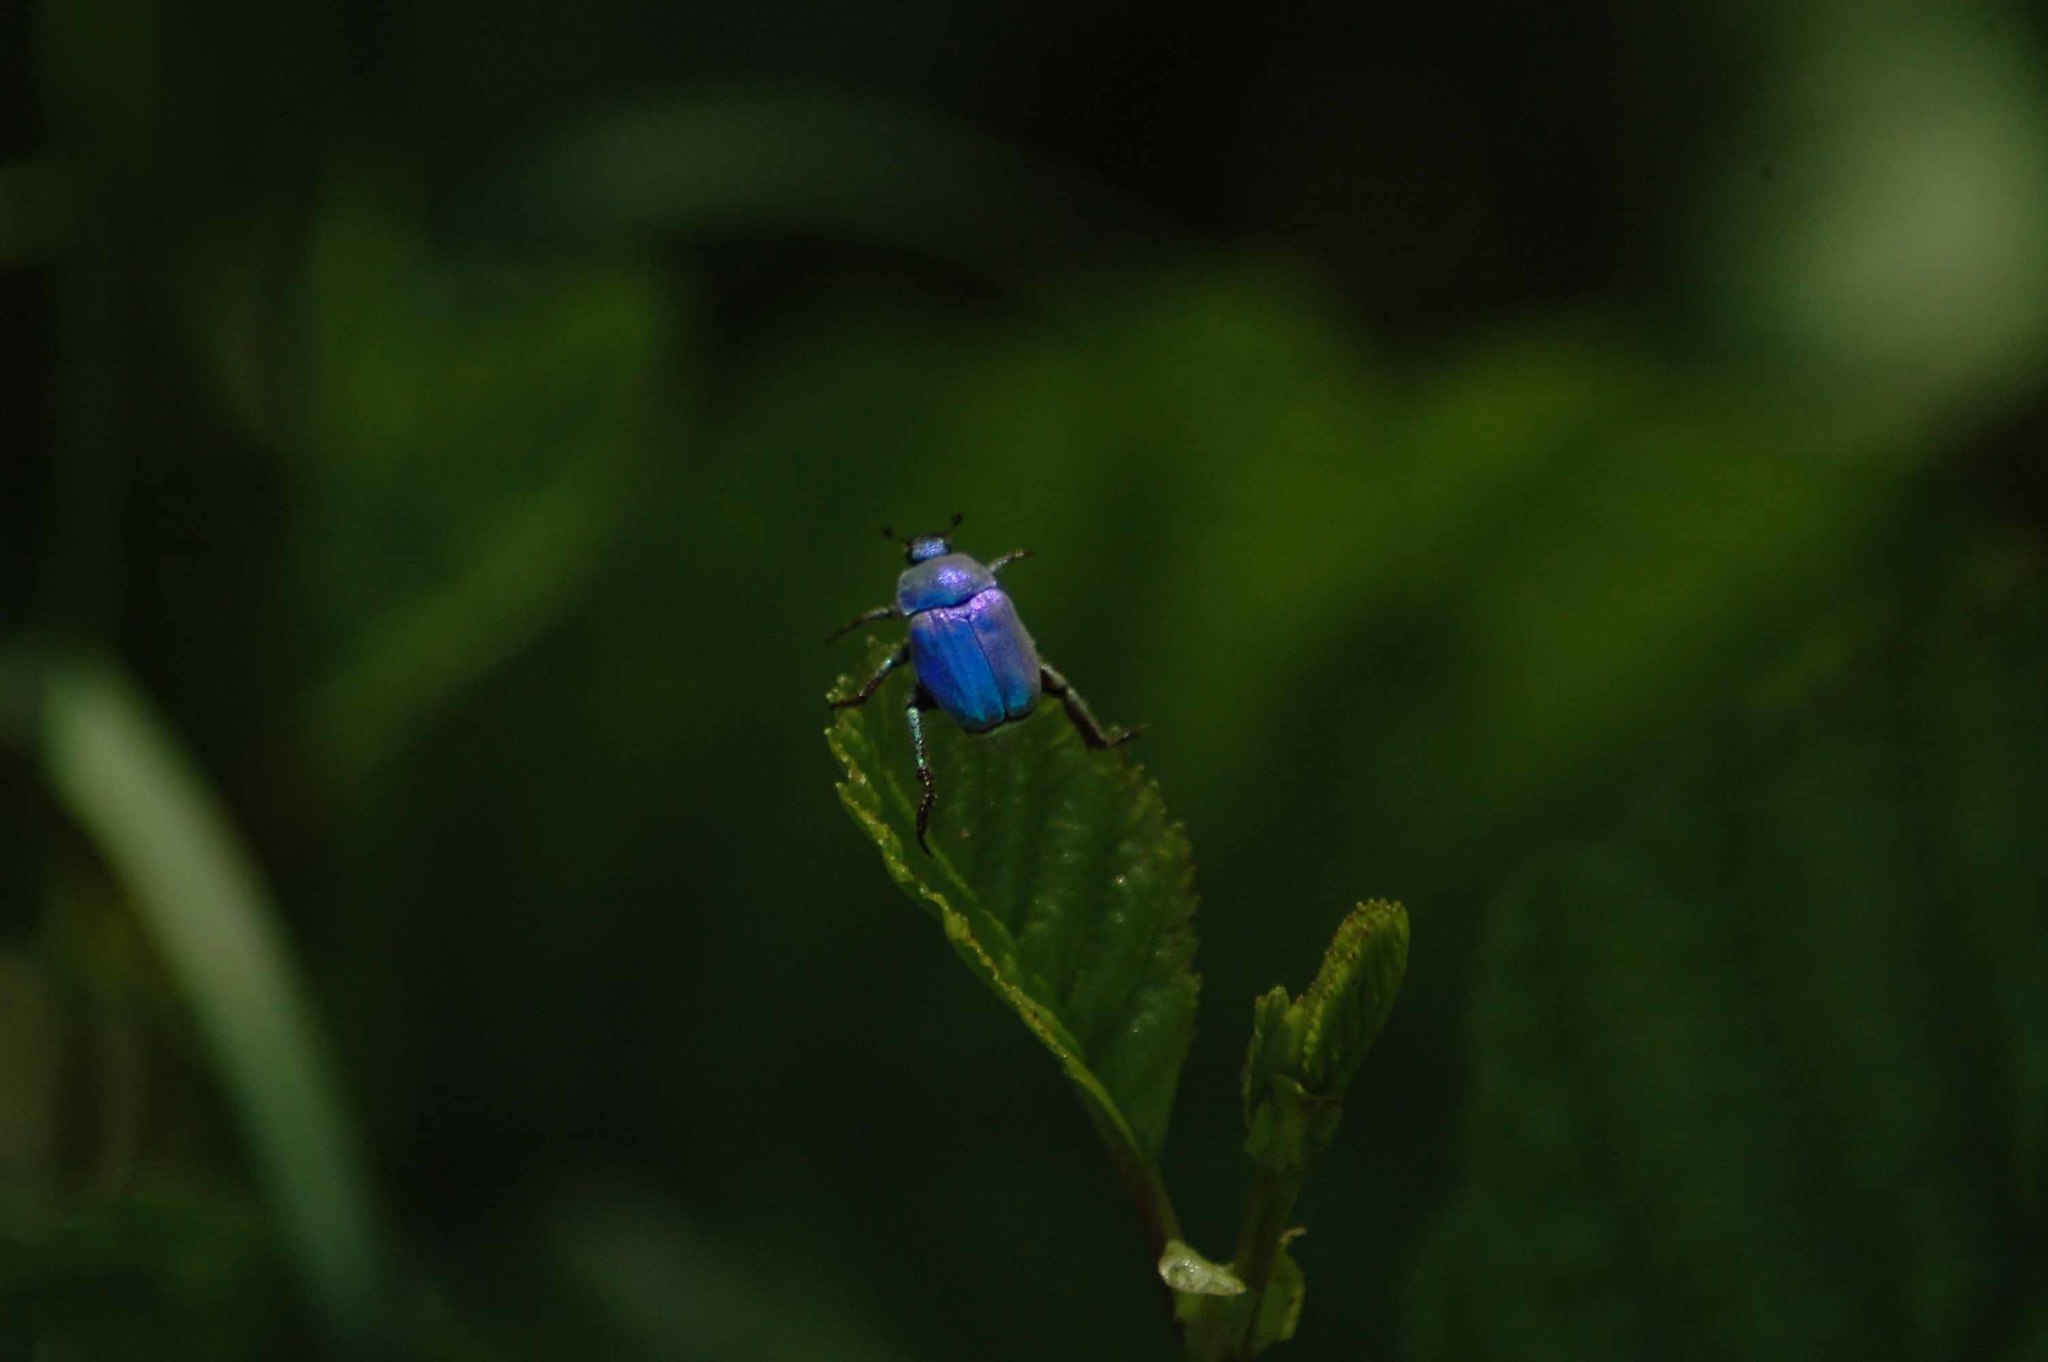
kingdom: Animalia
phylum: Arthropoda
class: Insecta
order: Coleoptera
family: Scarabaeidae
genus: Hoplia
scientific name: Hoplia coerulea
